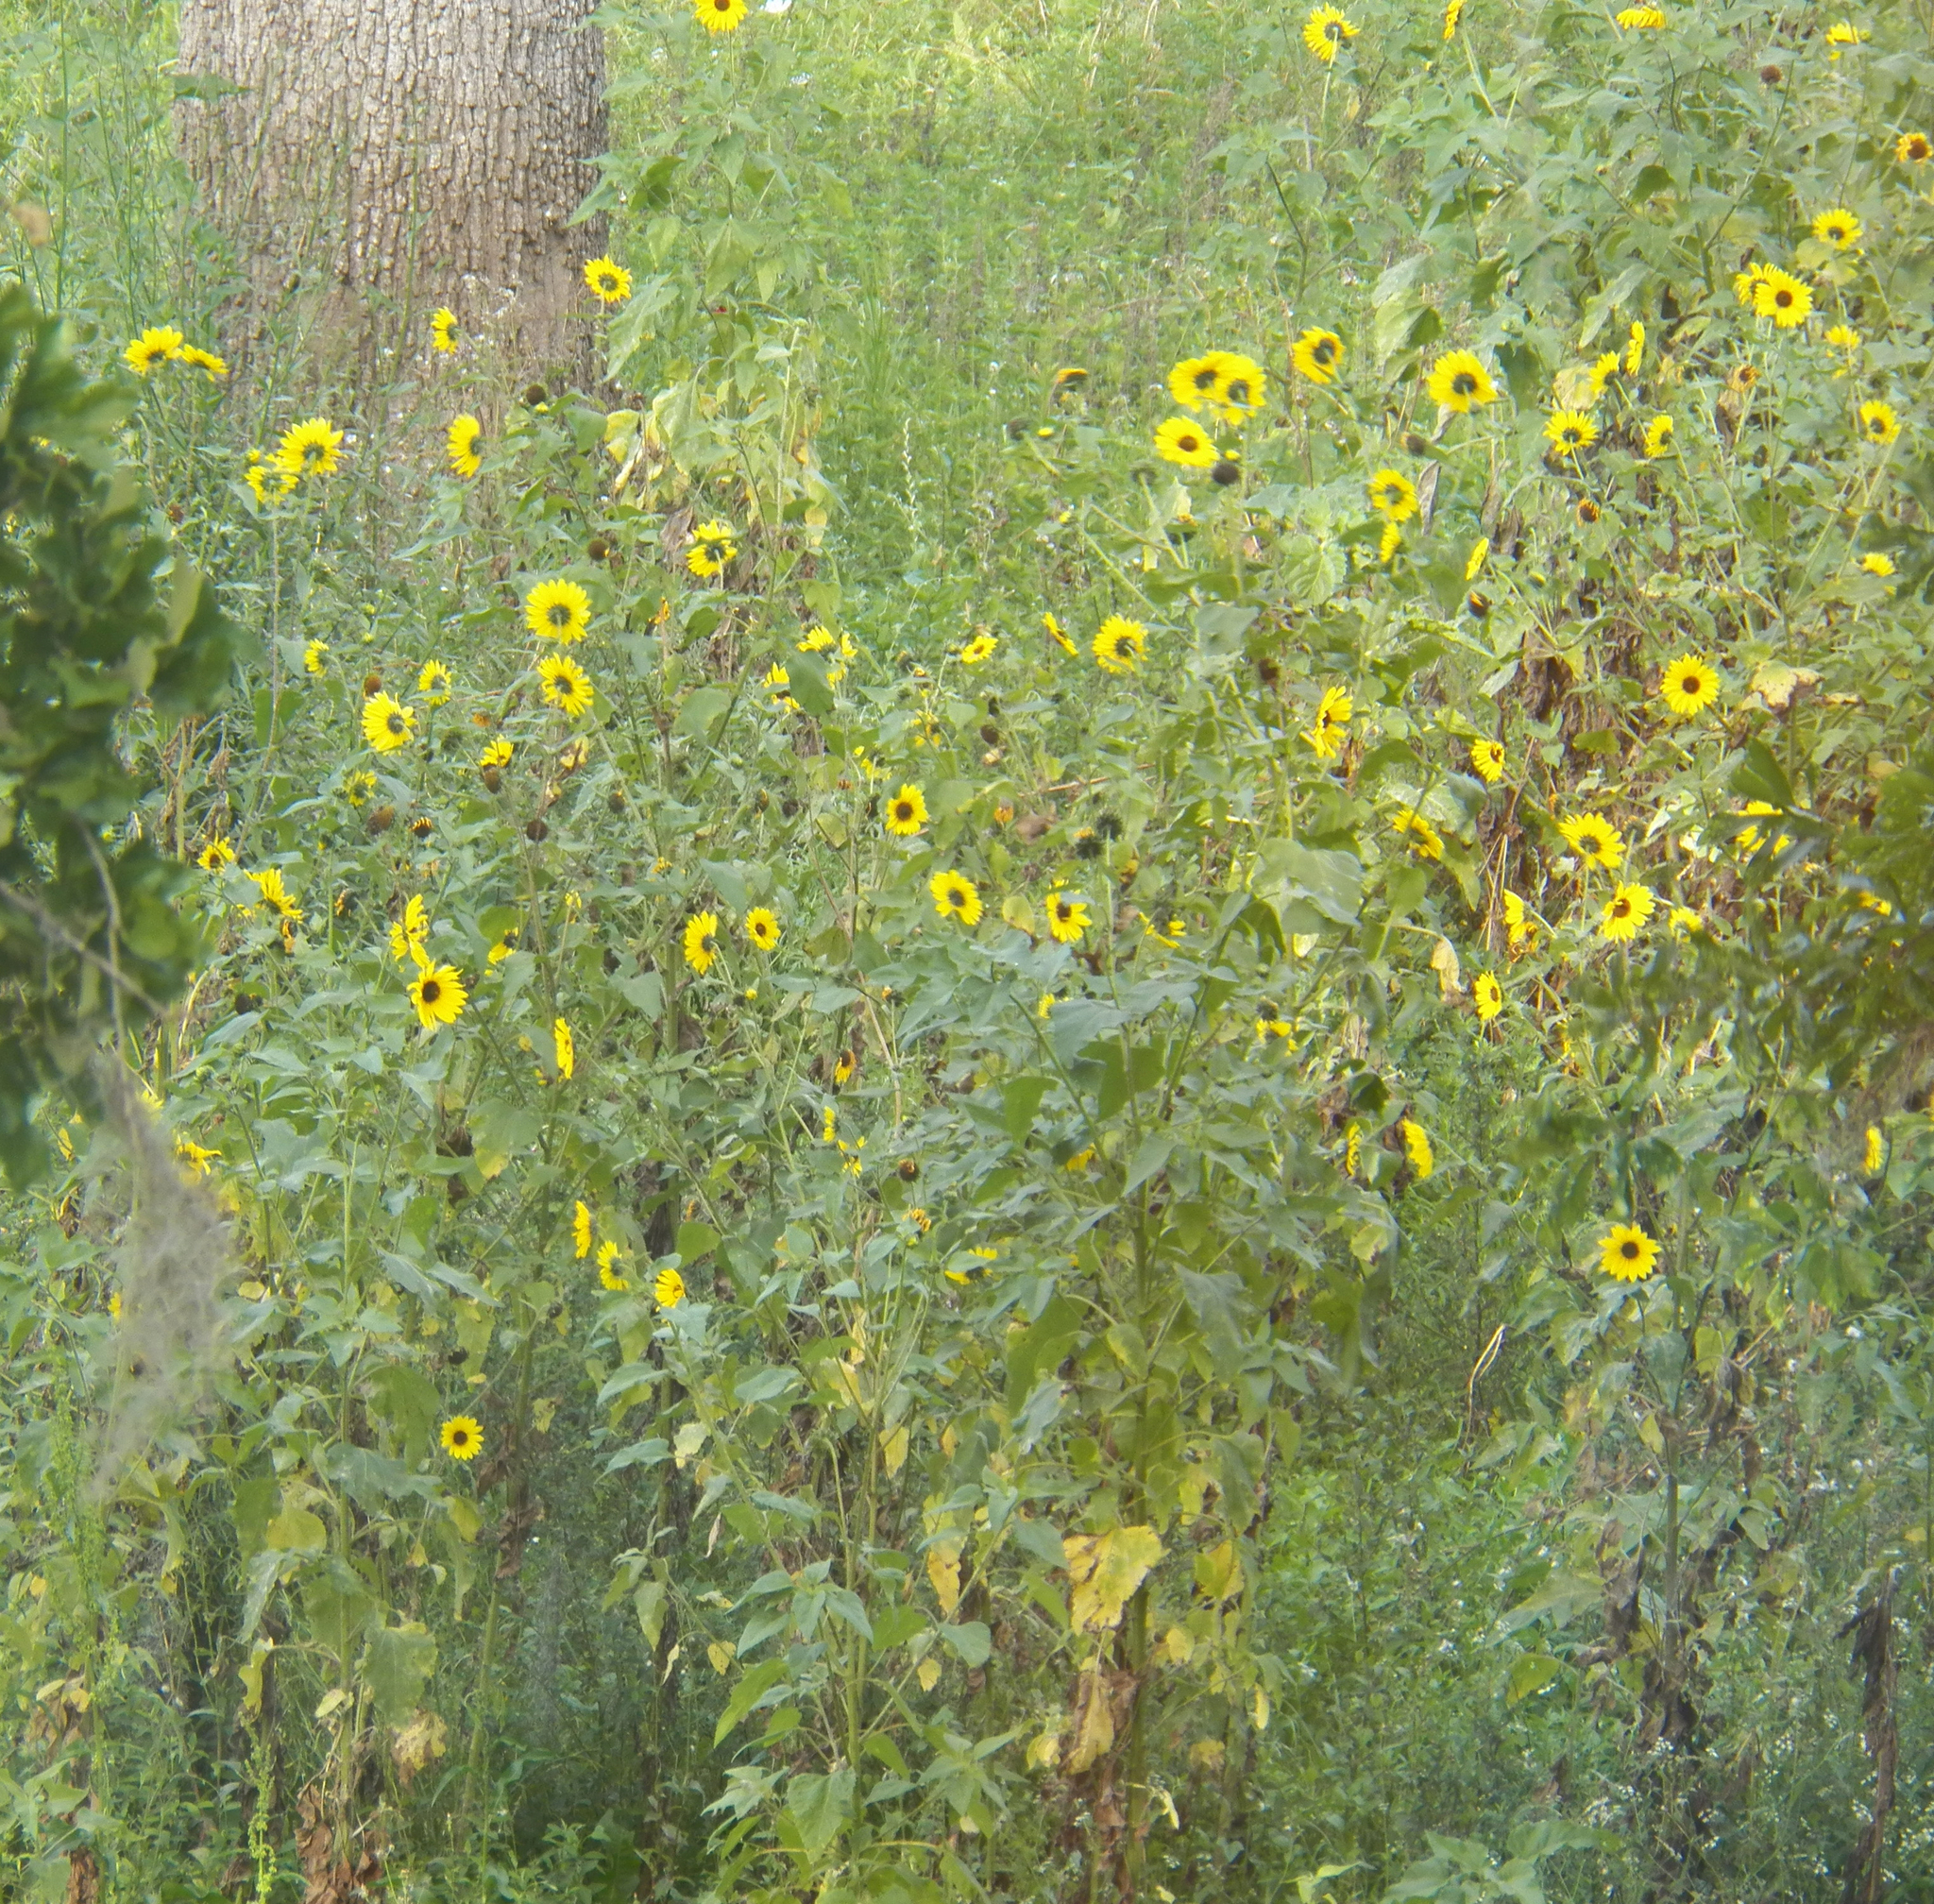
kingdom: Plantae
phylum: Tracheophyta
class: Magnoliopsida
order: Asterales
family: Asteraceae
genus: Helianthus
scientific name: Helianthus annuus
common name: Sunflower
